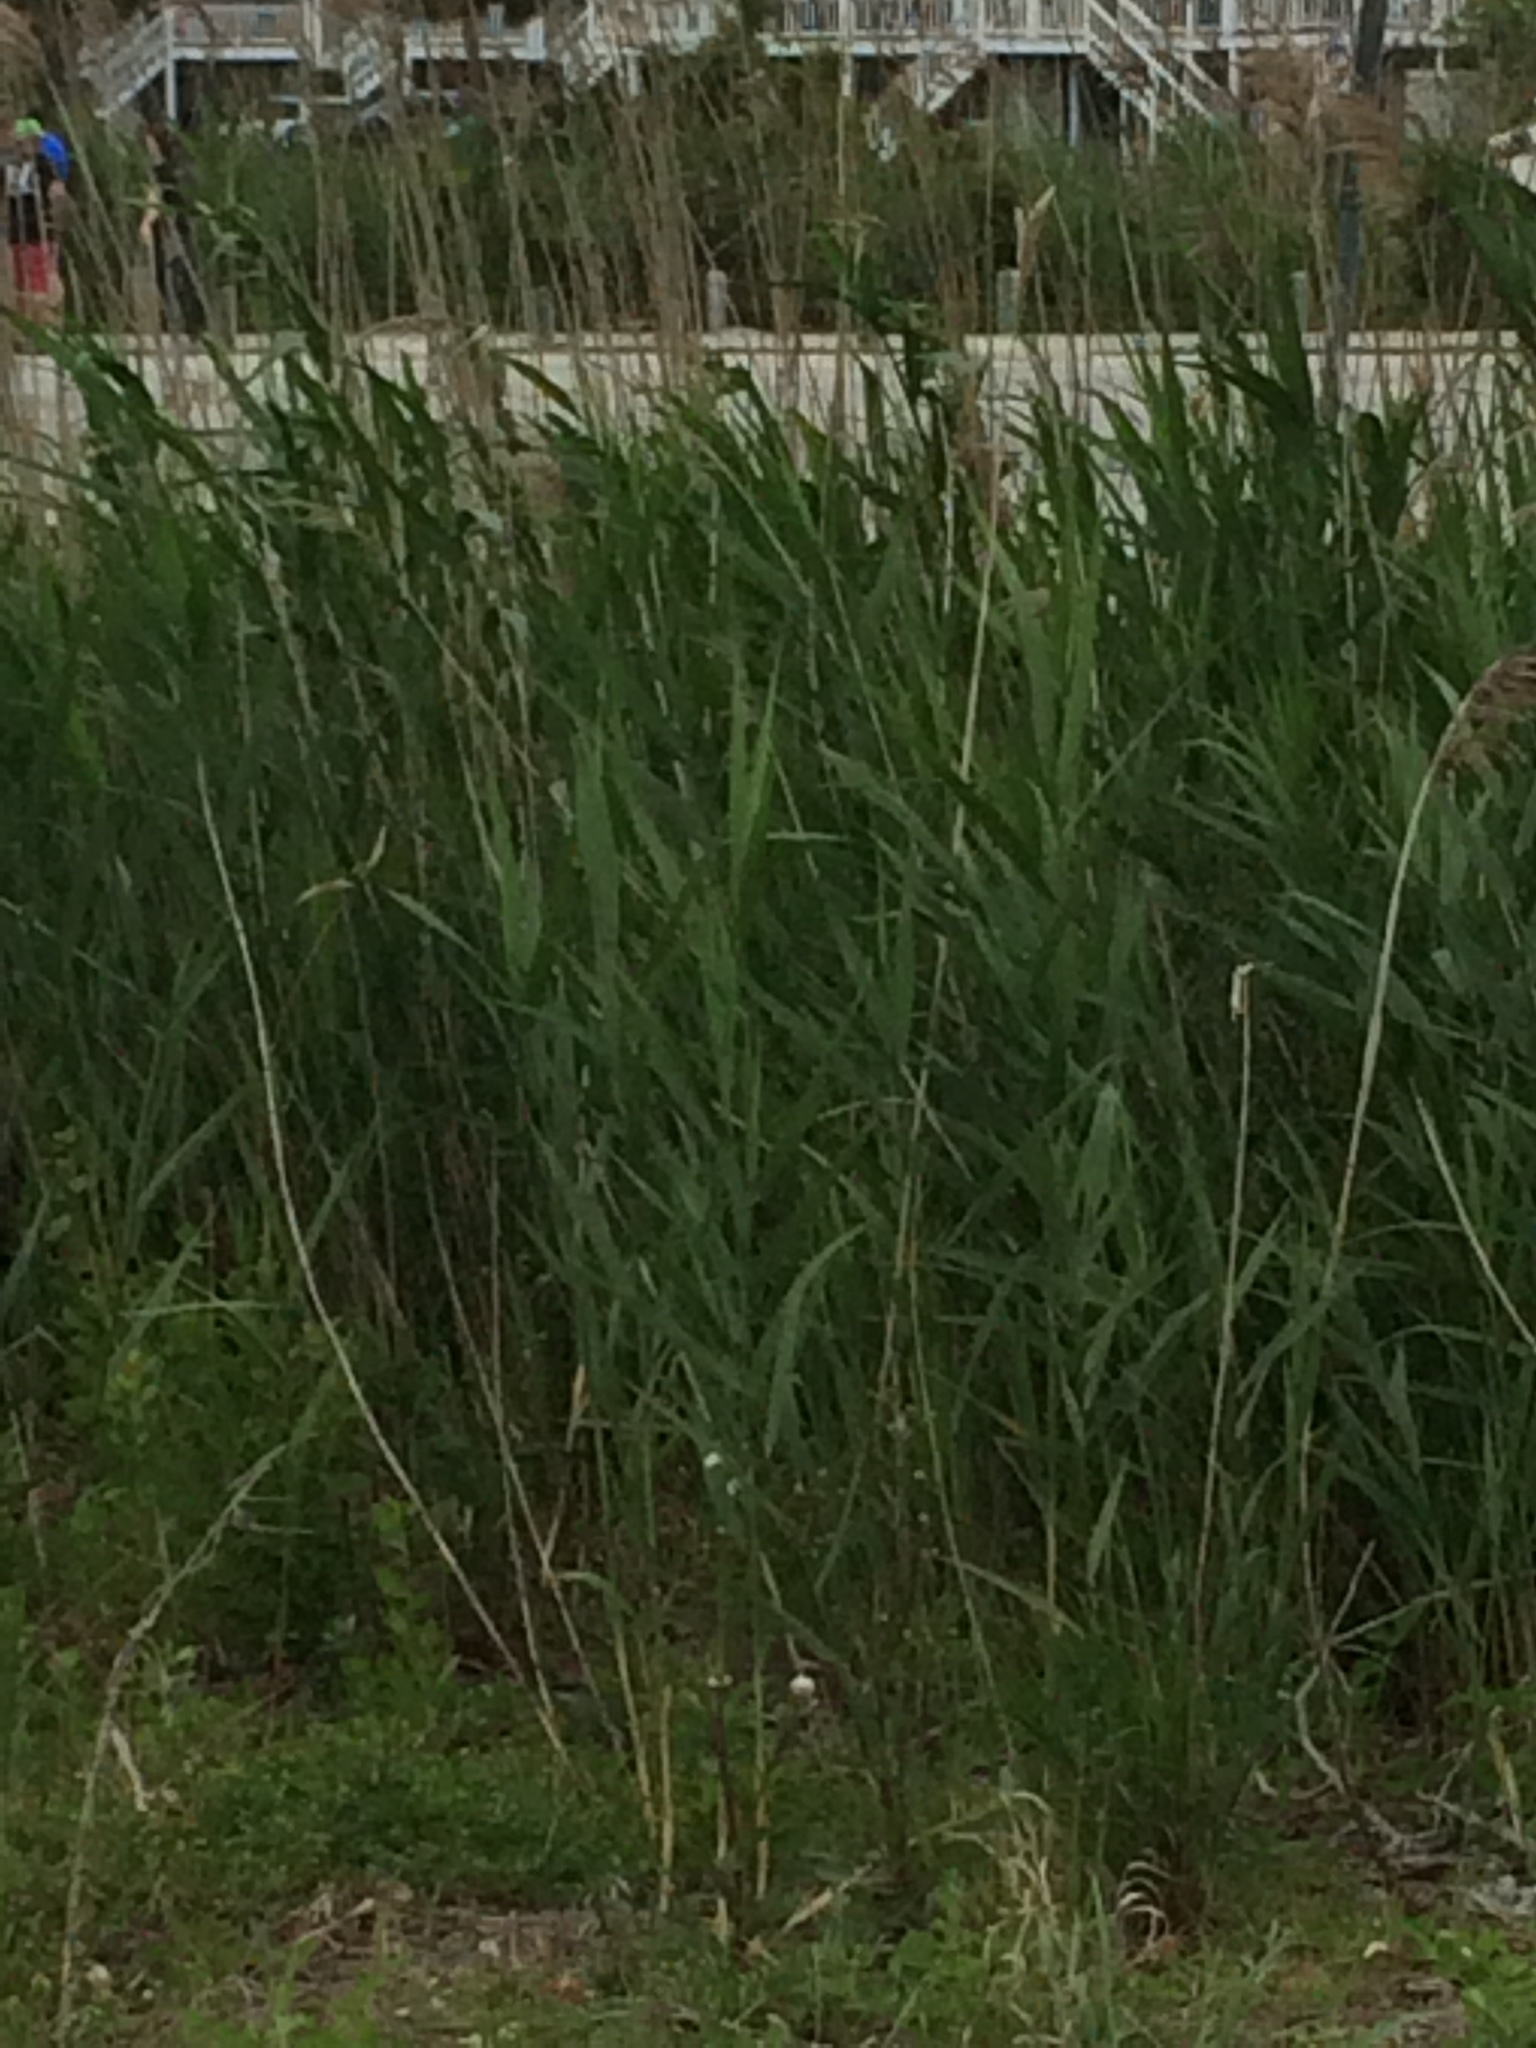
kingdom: Plantae
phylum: Tracheophyta
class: Liliopsida
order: Poales
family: Poaceae
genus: Phragmites
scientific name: Phragmites australis
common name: Common reed
